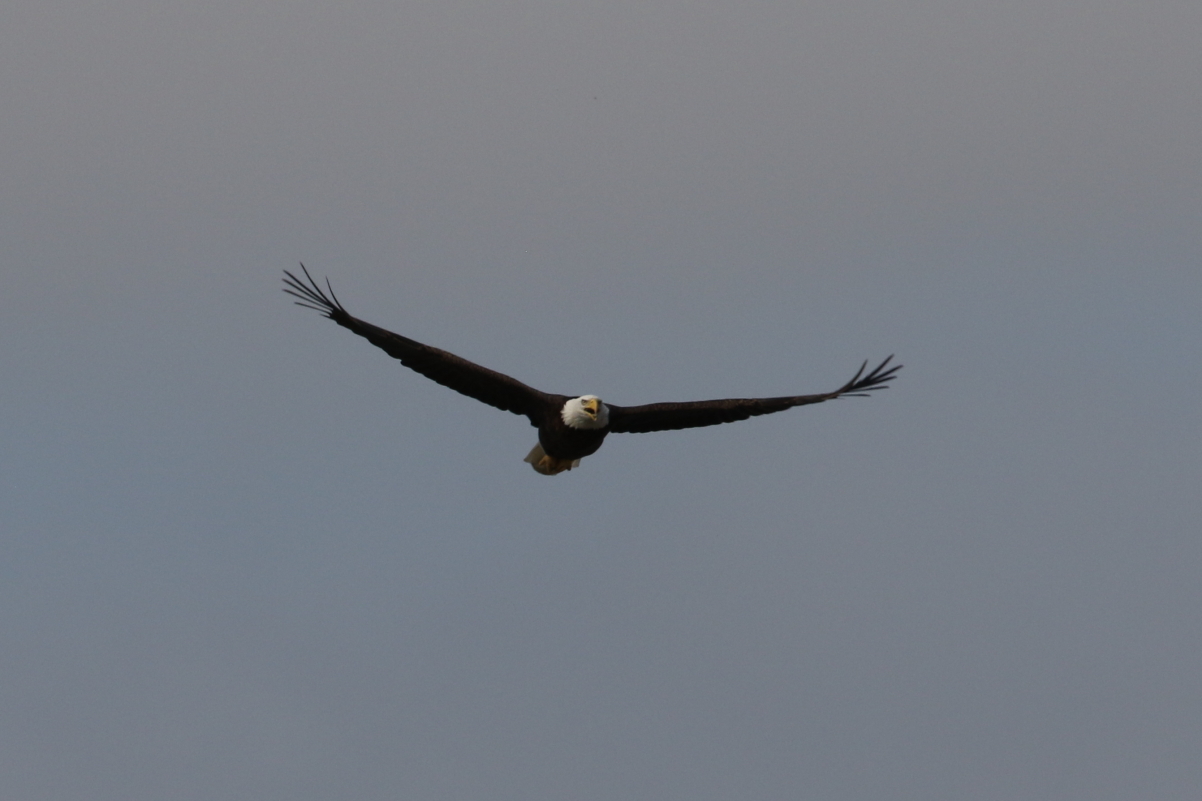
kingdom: Animalia
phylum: Chordata
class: Aves
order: Accipitriformes
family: Accipitridae
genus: Haliaeetus
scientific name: Haliaeetus leucocephalus
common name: Bald eagle
